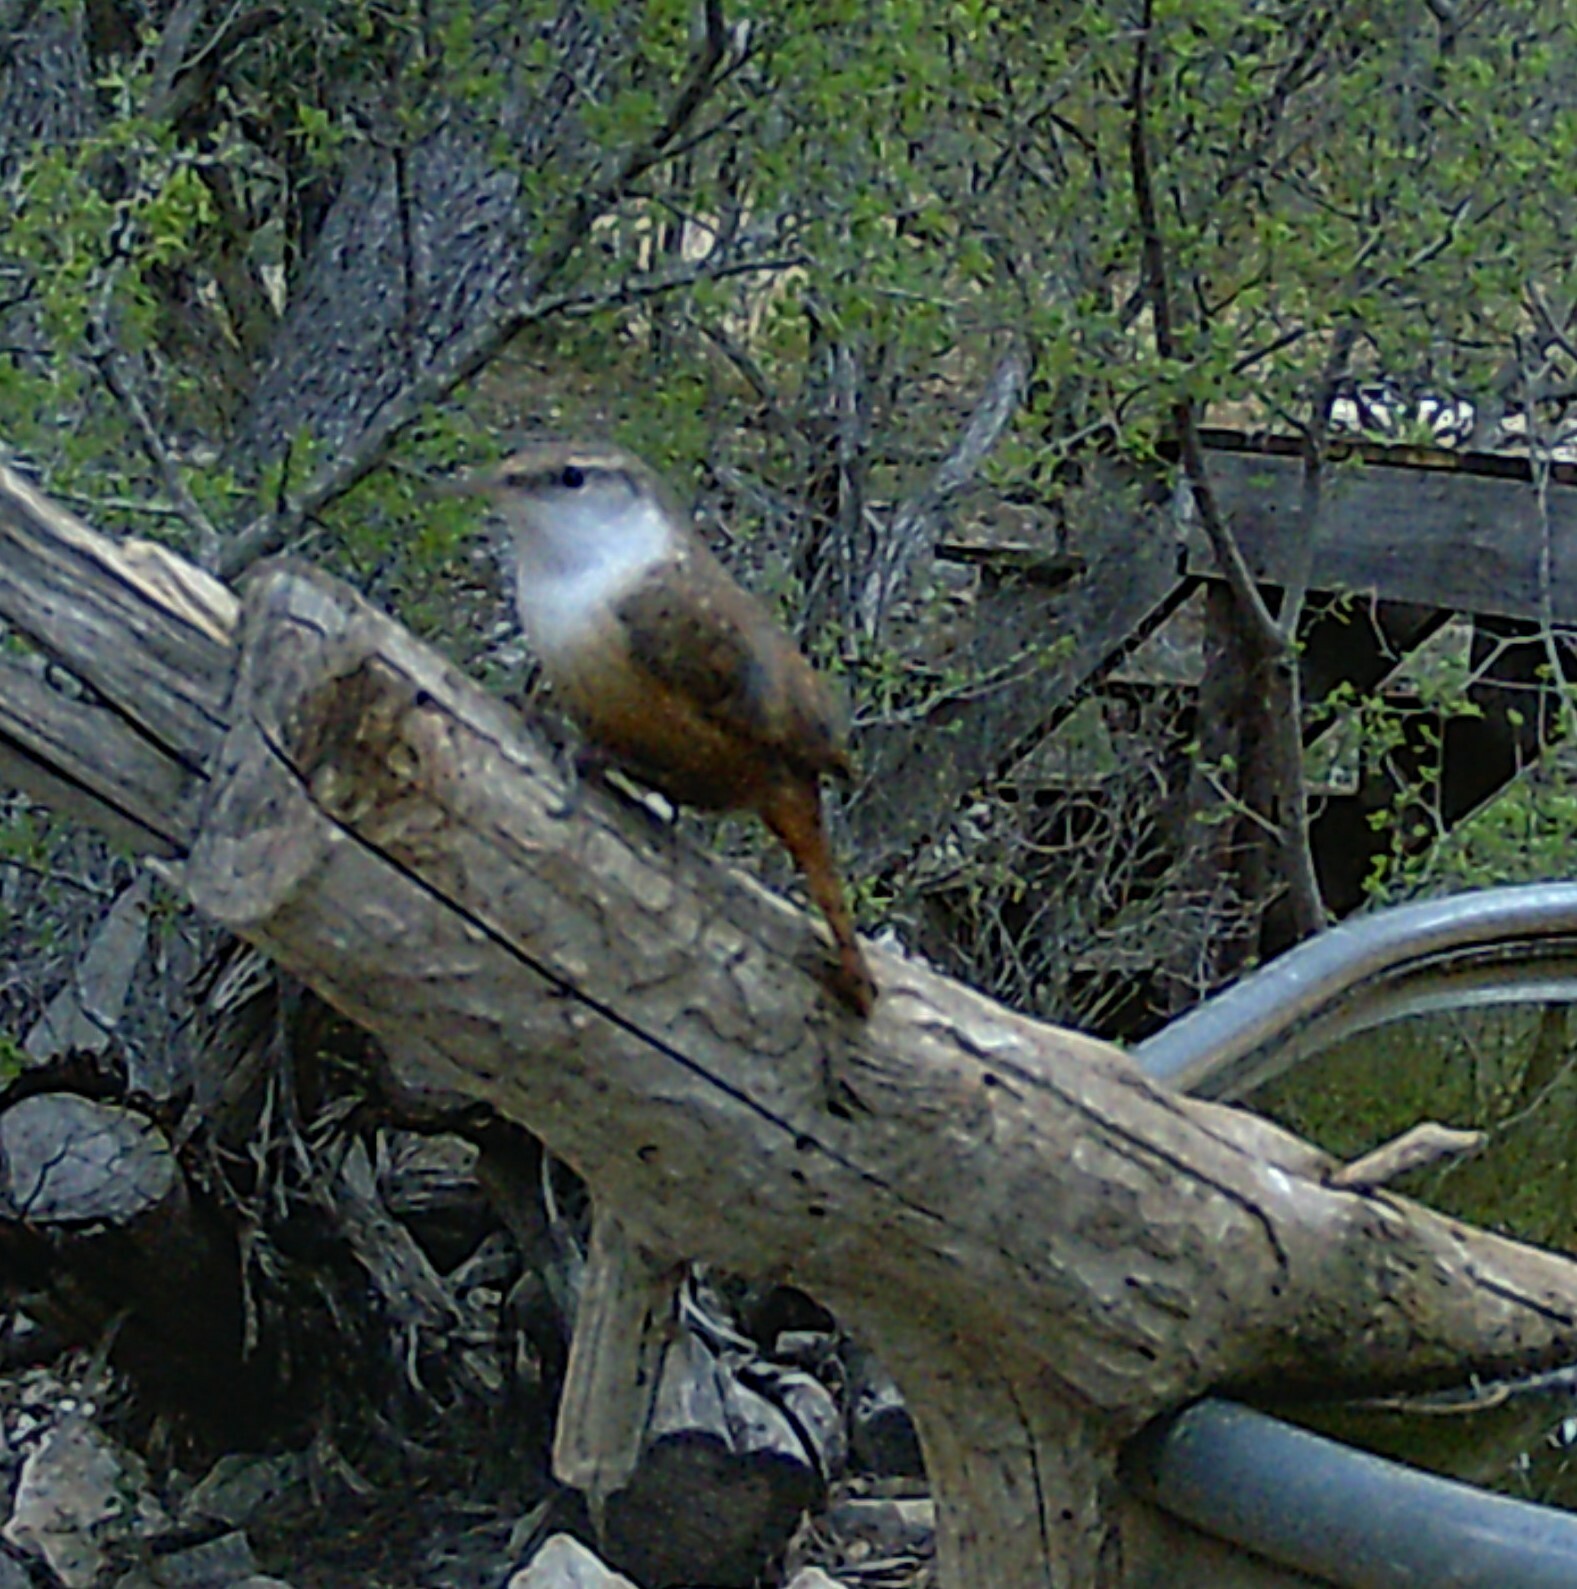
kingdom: Animalia
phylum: Chordata
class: Aves
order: Passeriformes
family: Troglodytidae
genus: Catherpes
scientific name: Catherpes mexicanus
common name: Canyon wren
